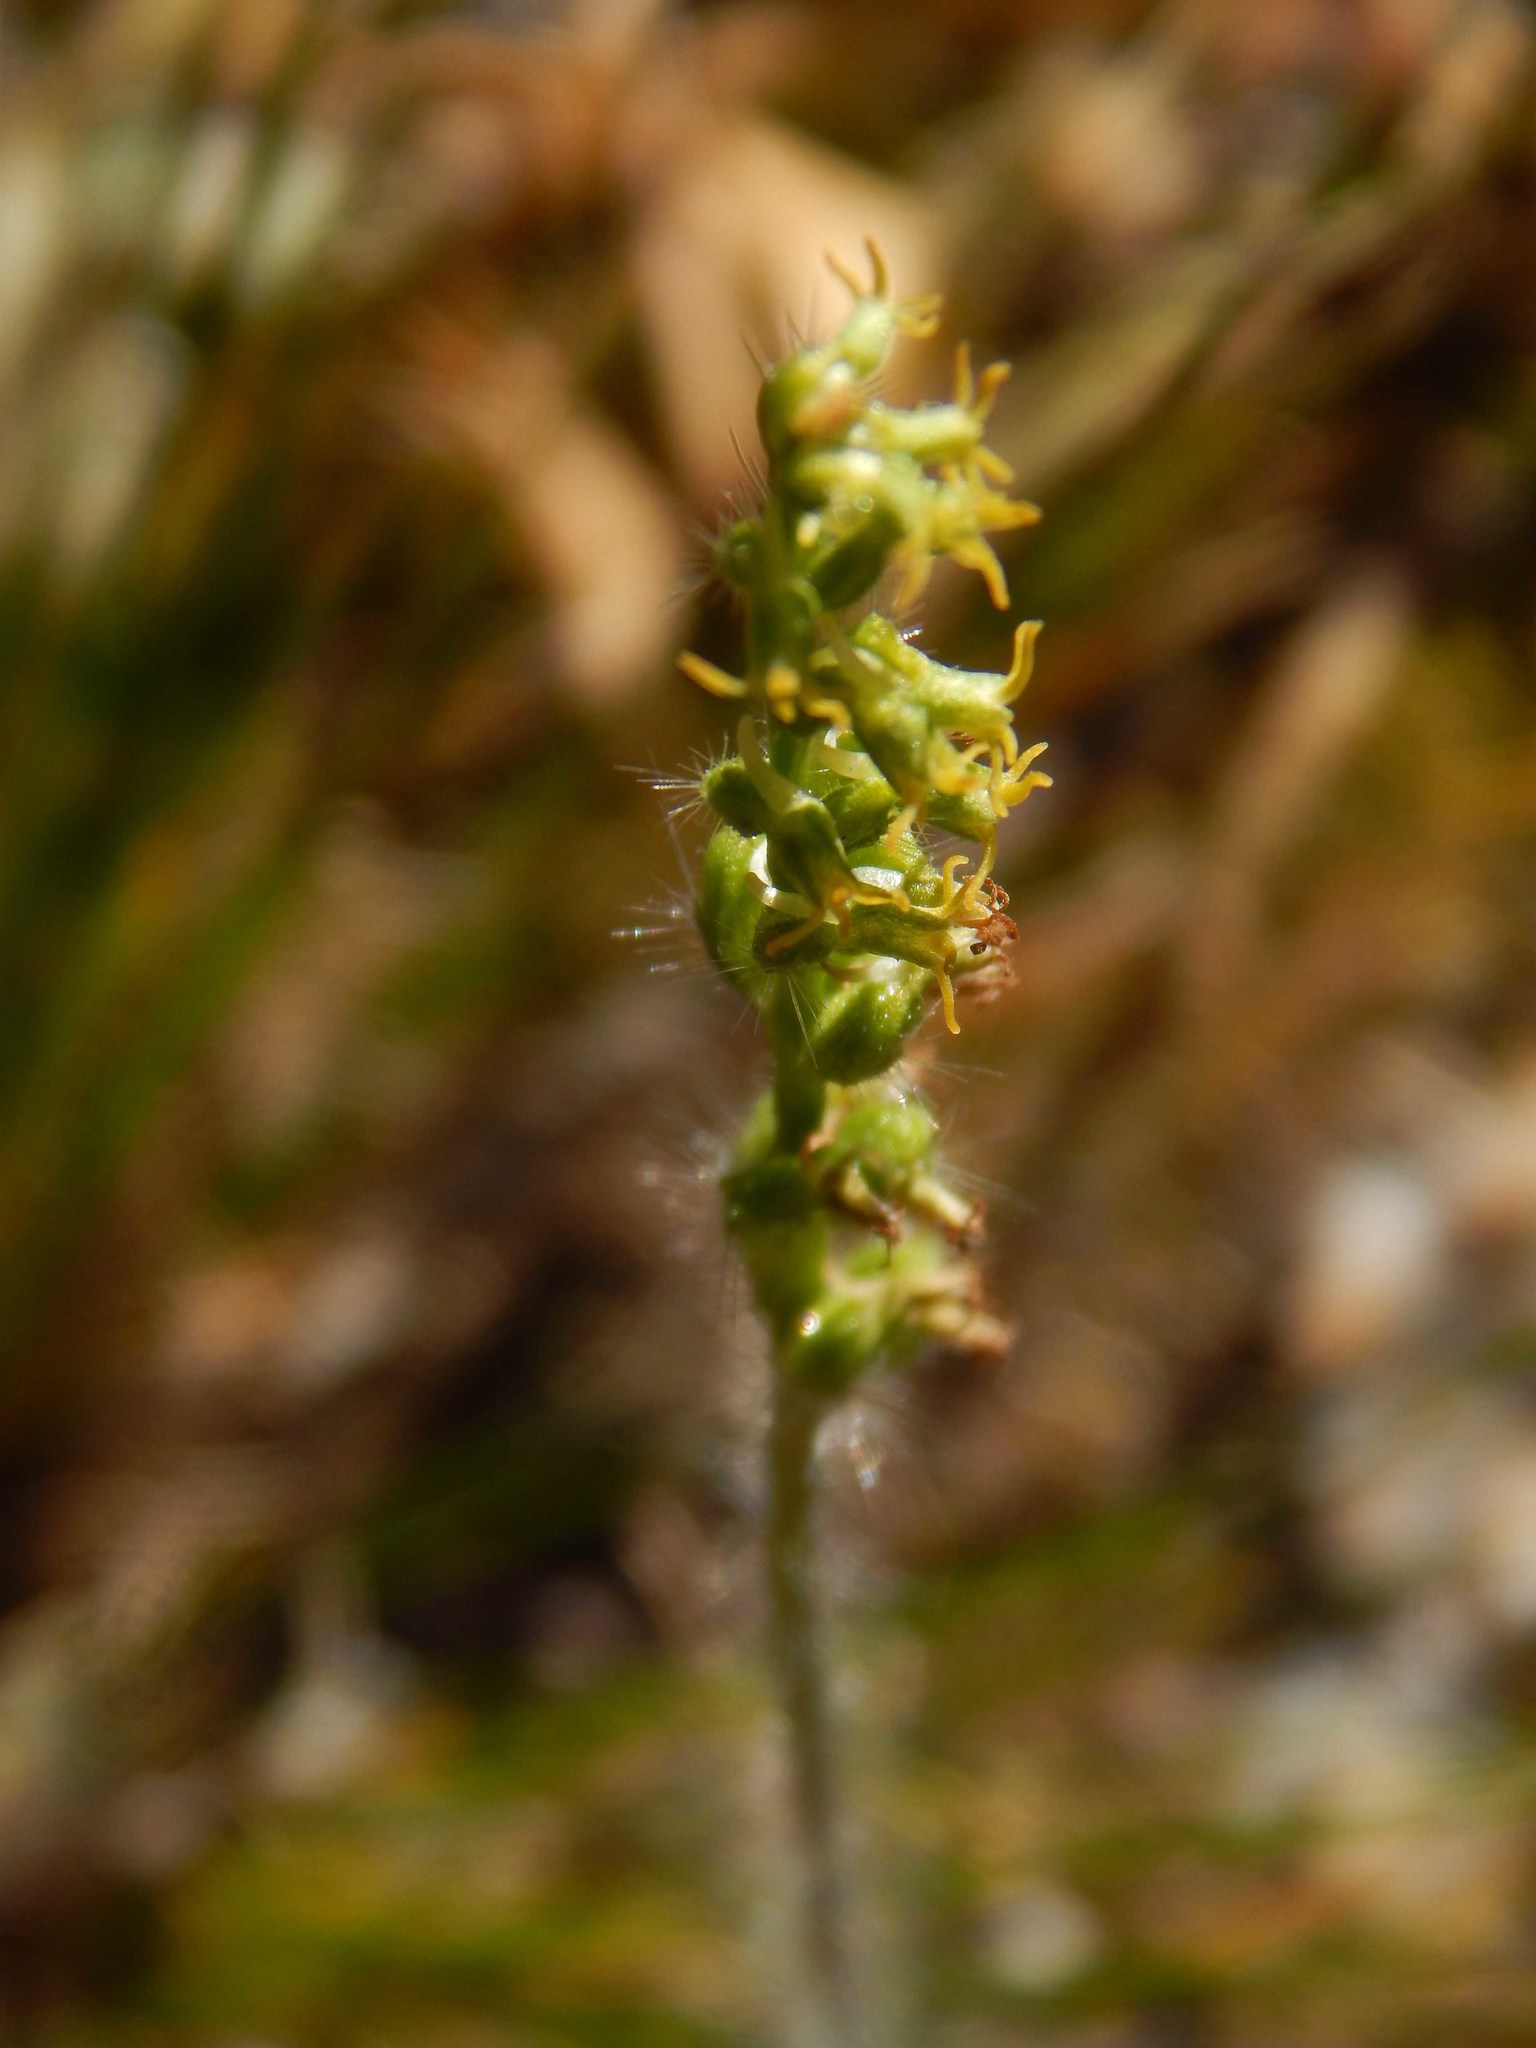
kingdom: Plantae
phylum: Tracheophyta
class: Liliopsida
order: Asparagales
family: Orchidaceae
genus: Holothrix
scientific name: Holothrix villosa
